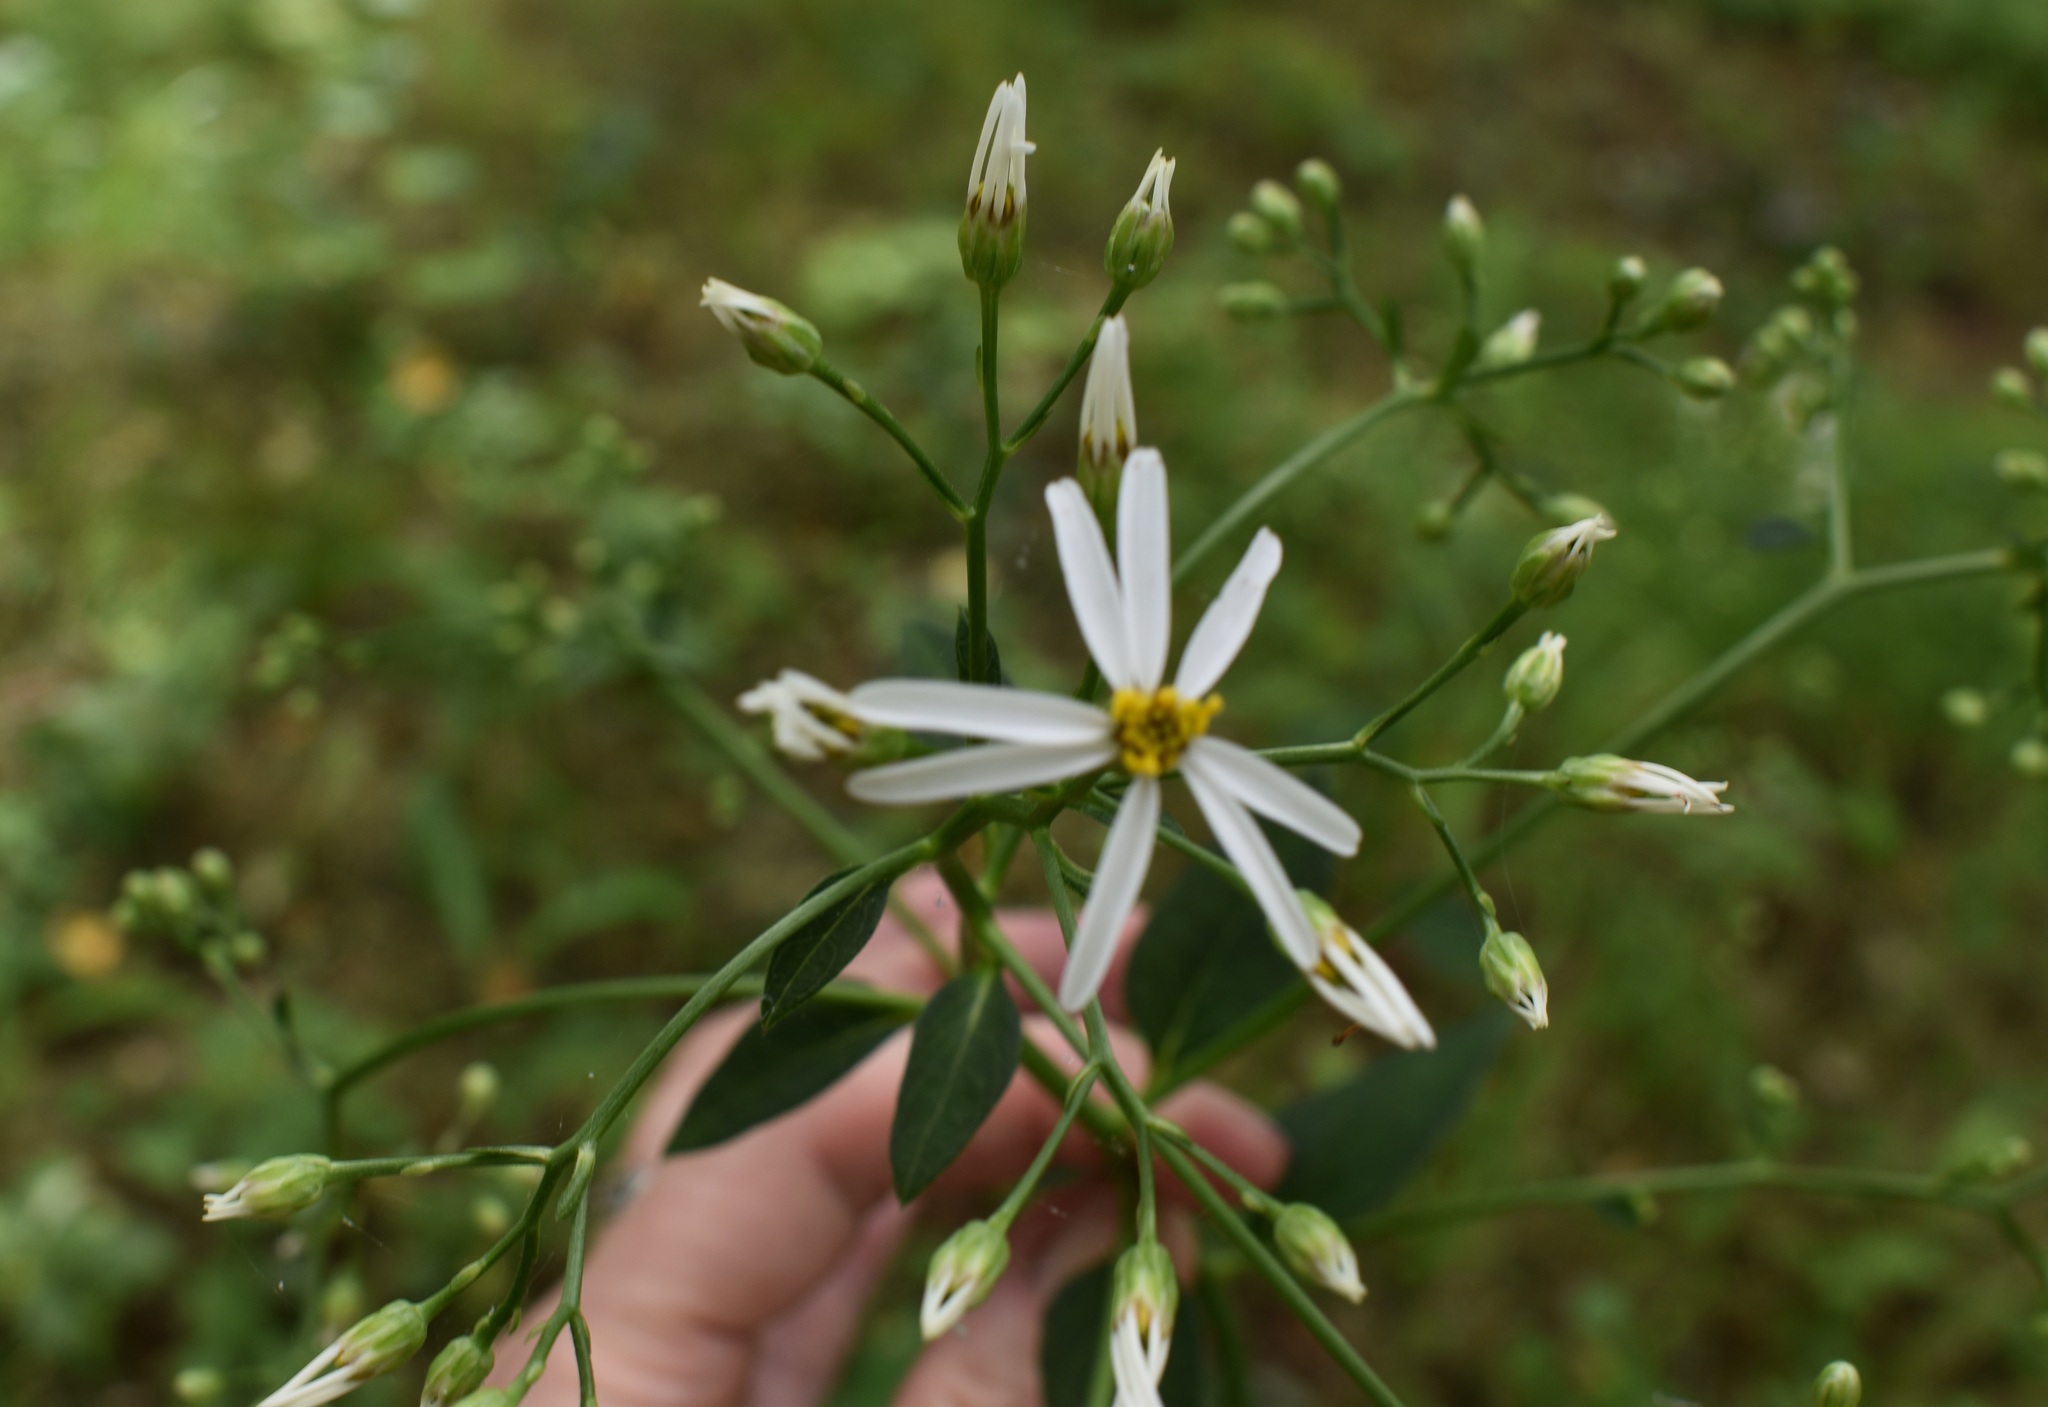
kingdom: Plantae
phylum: Tracheophyta
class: Magnoliopsida
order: Asterales
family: Asteraceae
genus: Aster
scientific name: Aster scaber
